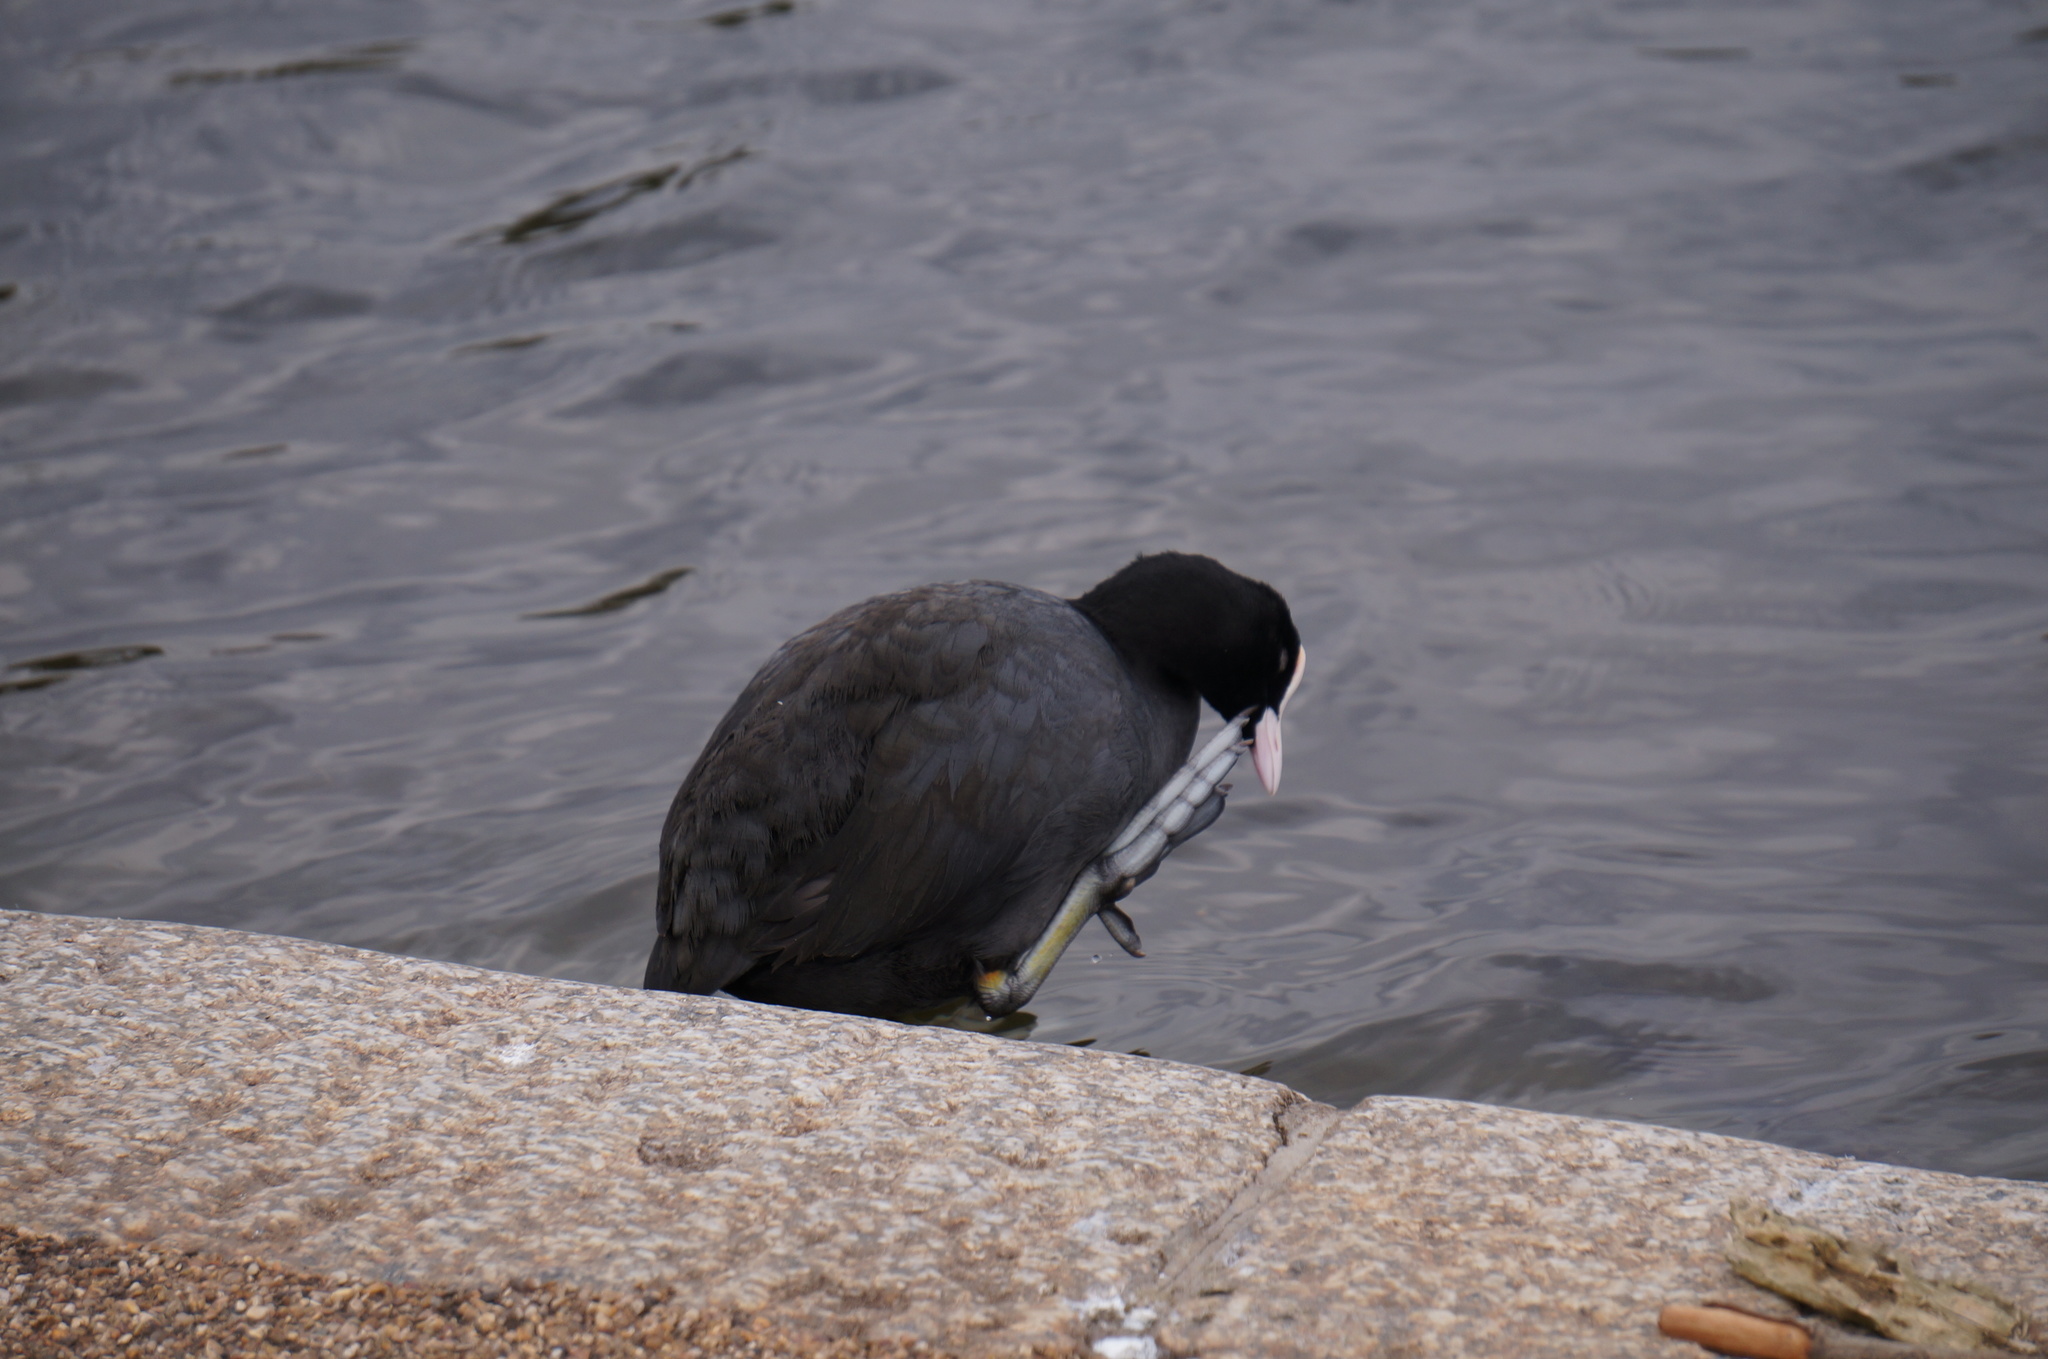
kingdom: Animalia
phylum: Chordata
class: Aves
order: Gruiformes
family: Rallidae
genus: Fulica
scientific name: Fulica atra
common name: Eurasian coot
